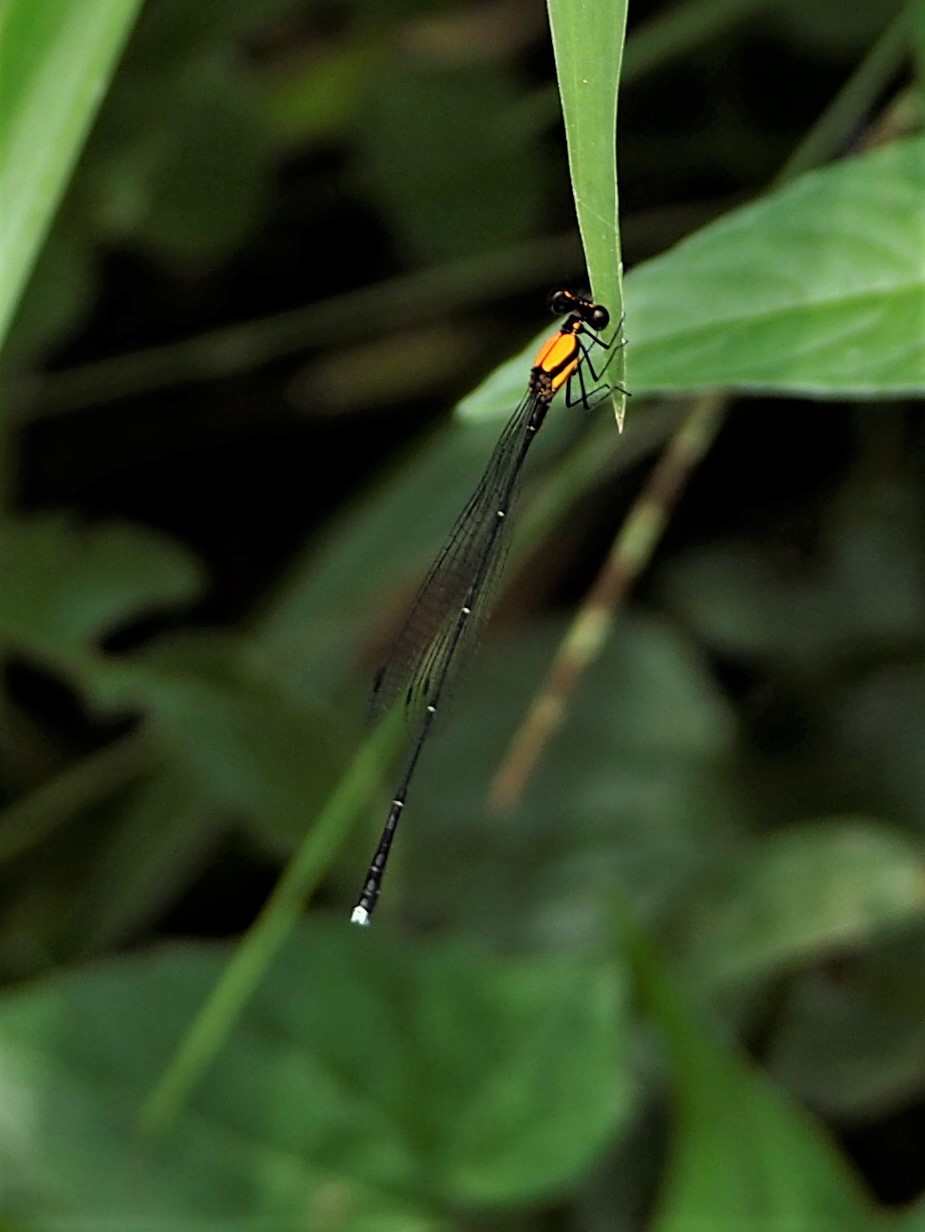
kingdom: Animalia
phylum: Arthropoda
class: Insecta
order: Odonata
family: Platycnemididae
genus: Prodasineura
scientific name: Prodasineura croconota
